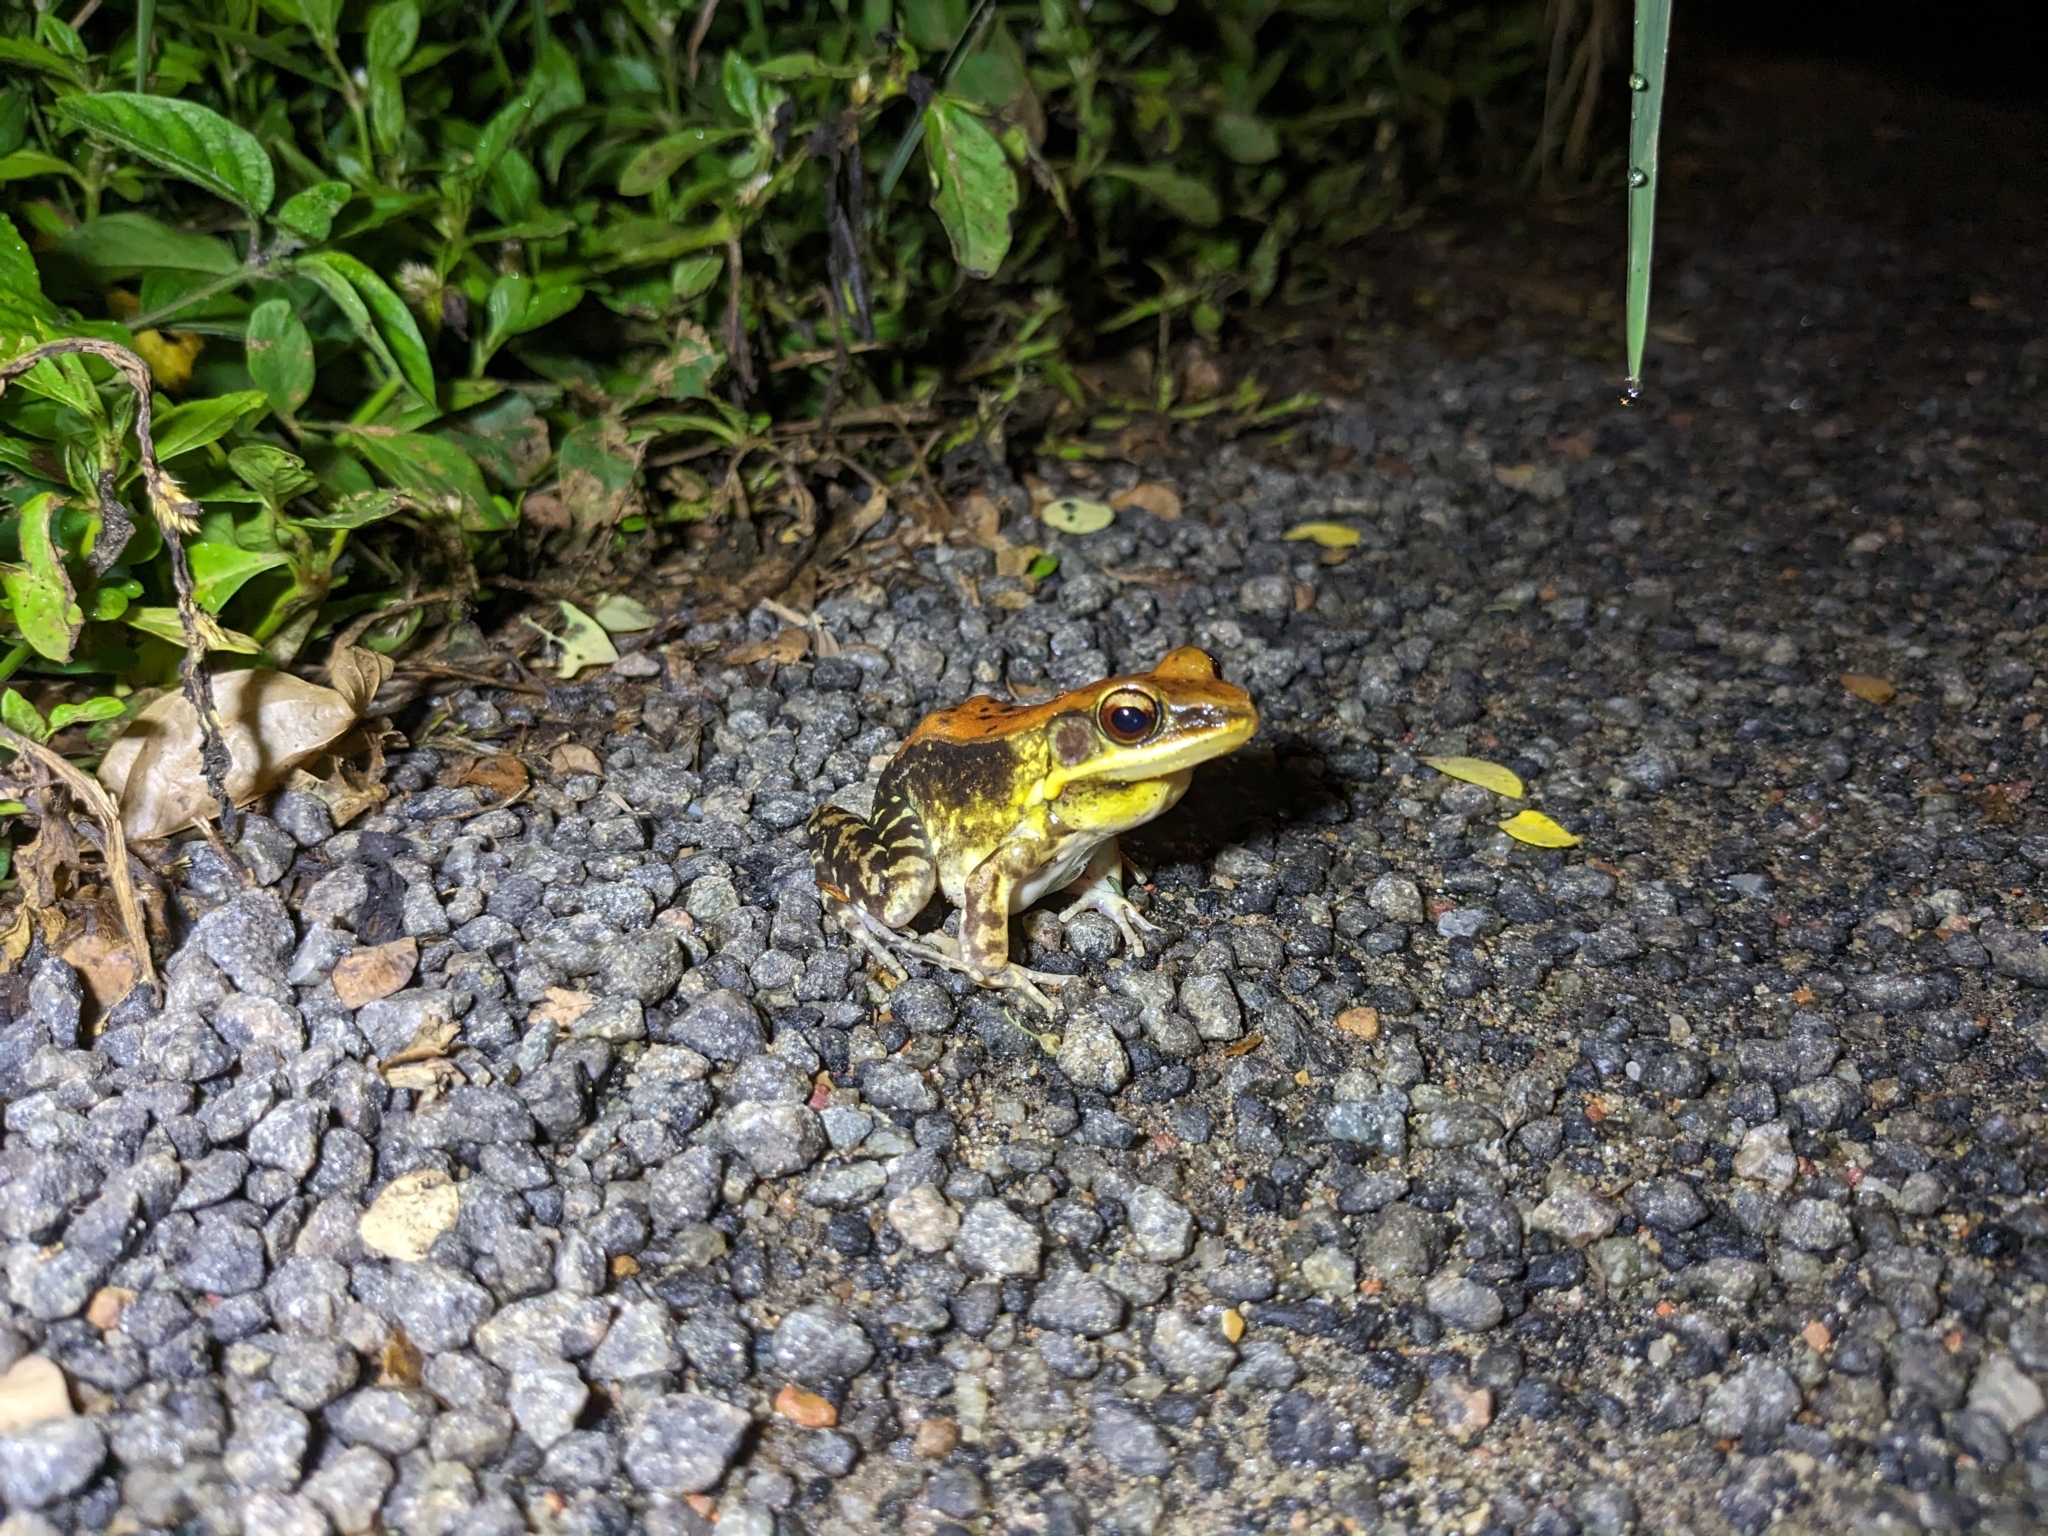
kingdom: Animalia
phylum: Chordata
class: Amphibia
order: Anura
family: Ranidae
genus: Hydrophylax
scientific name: Hydrophylax malabaricus
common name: Malabar fungoid frog
